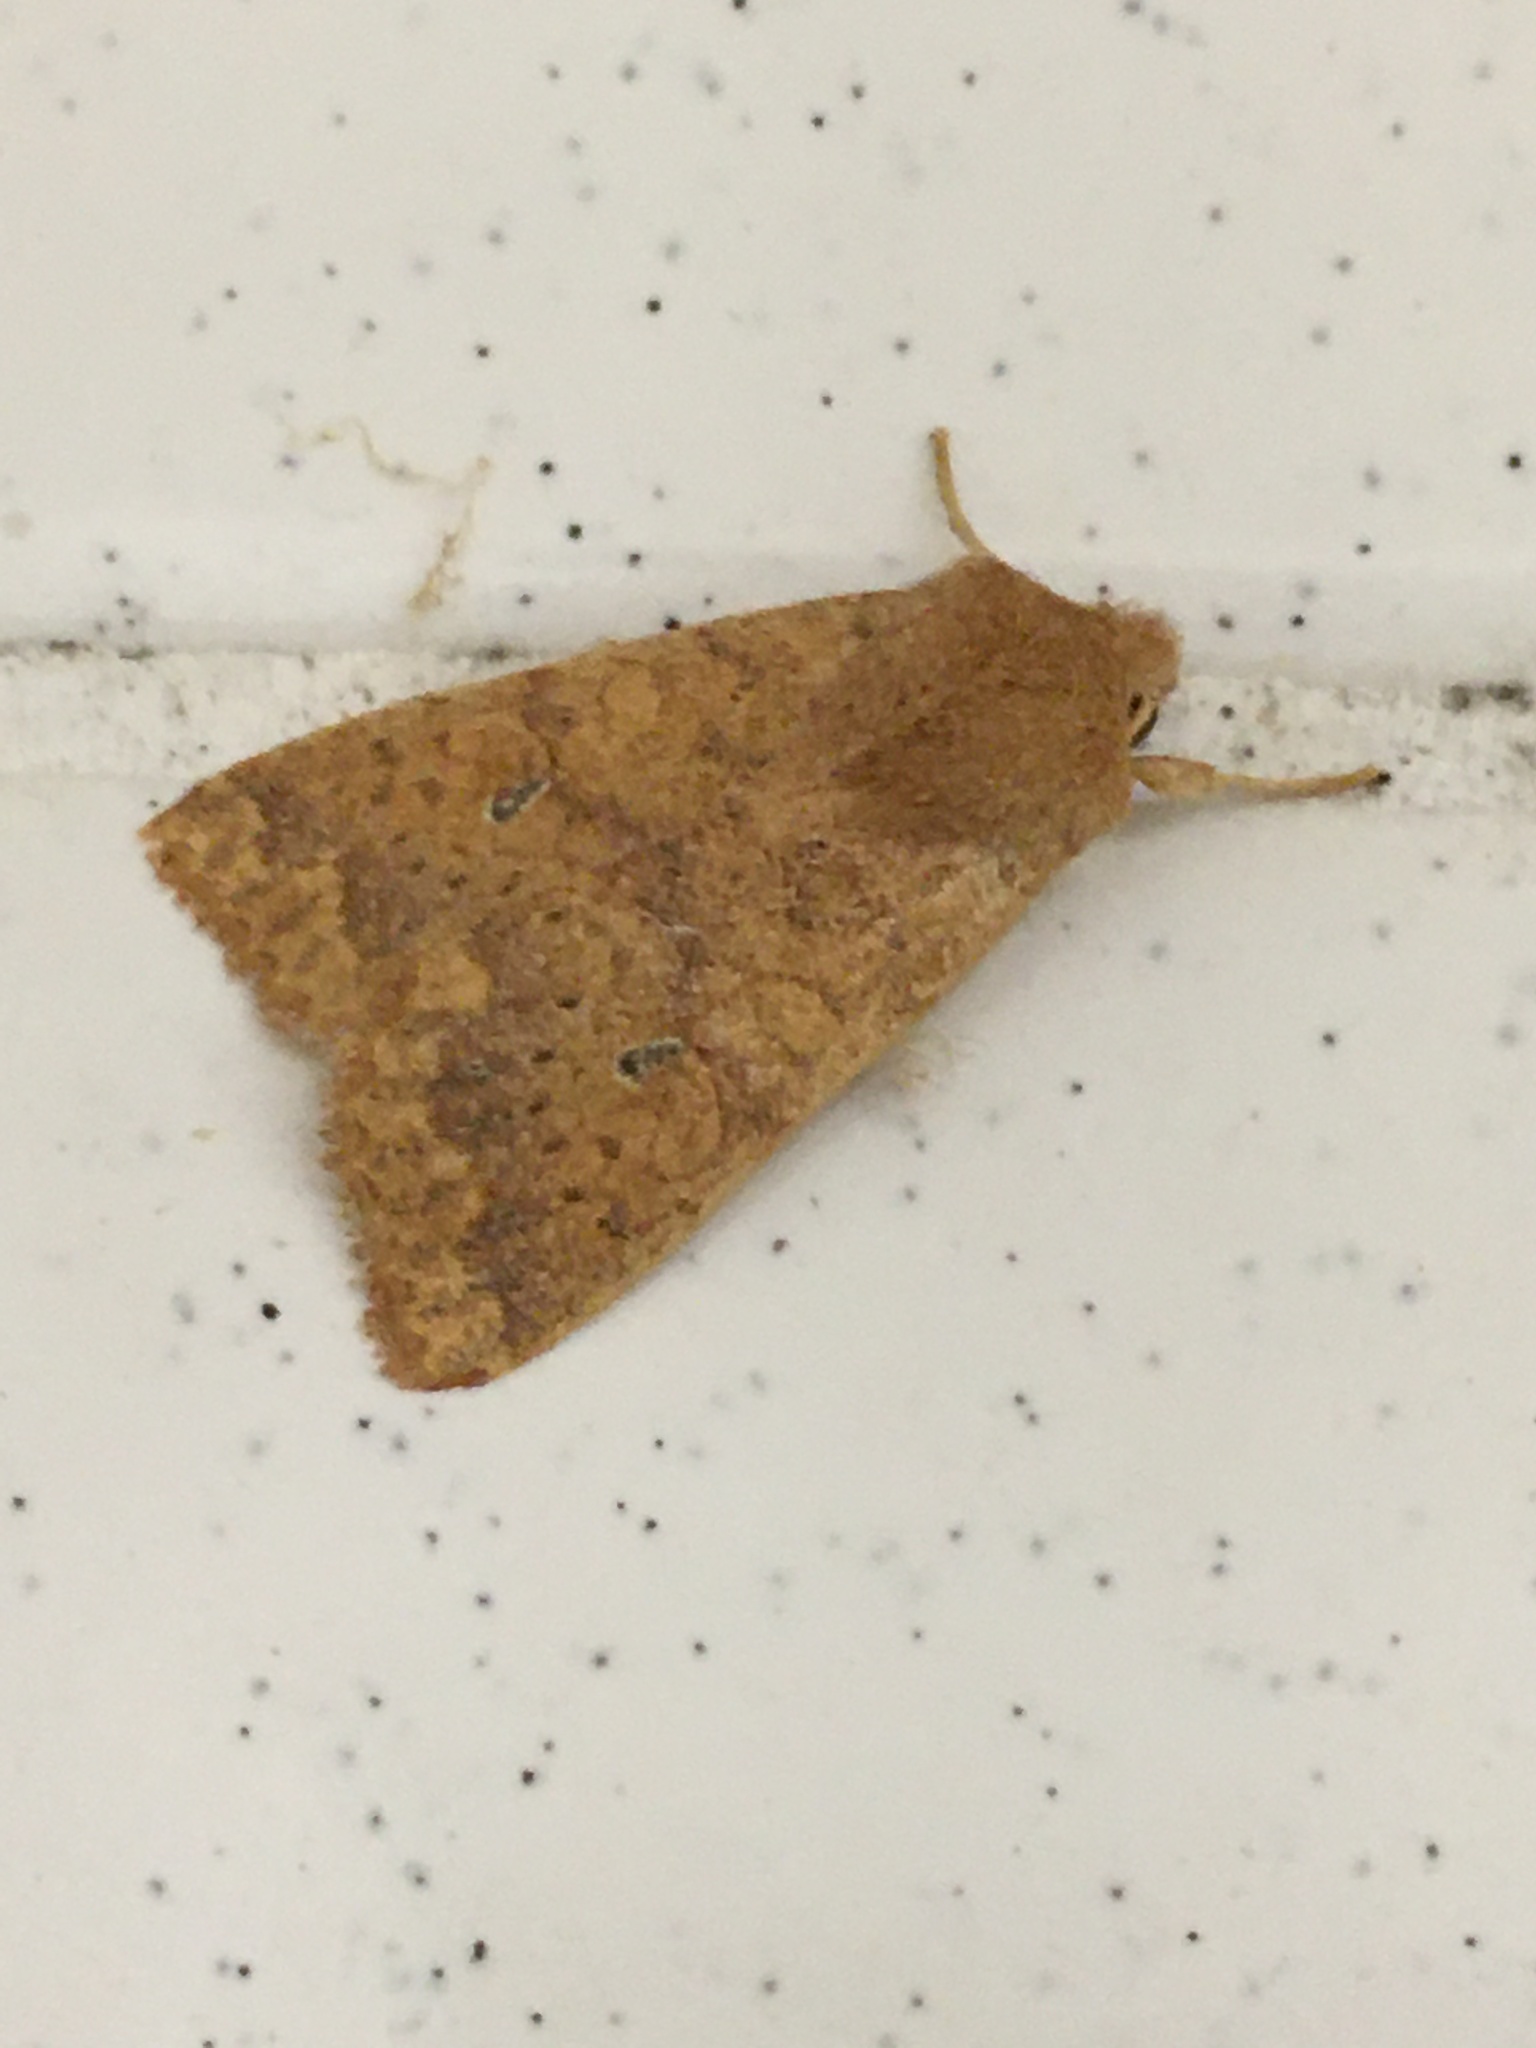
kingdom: Animalia
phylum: Arthropoda
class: Insecta
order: Lepidoptera
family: Noctuidae
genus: Anathix
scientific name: Anathix ralla
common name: Dotted sallow
